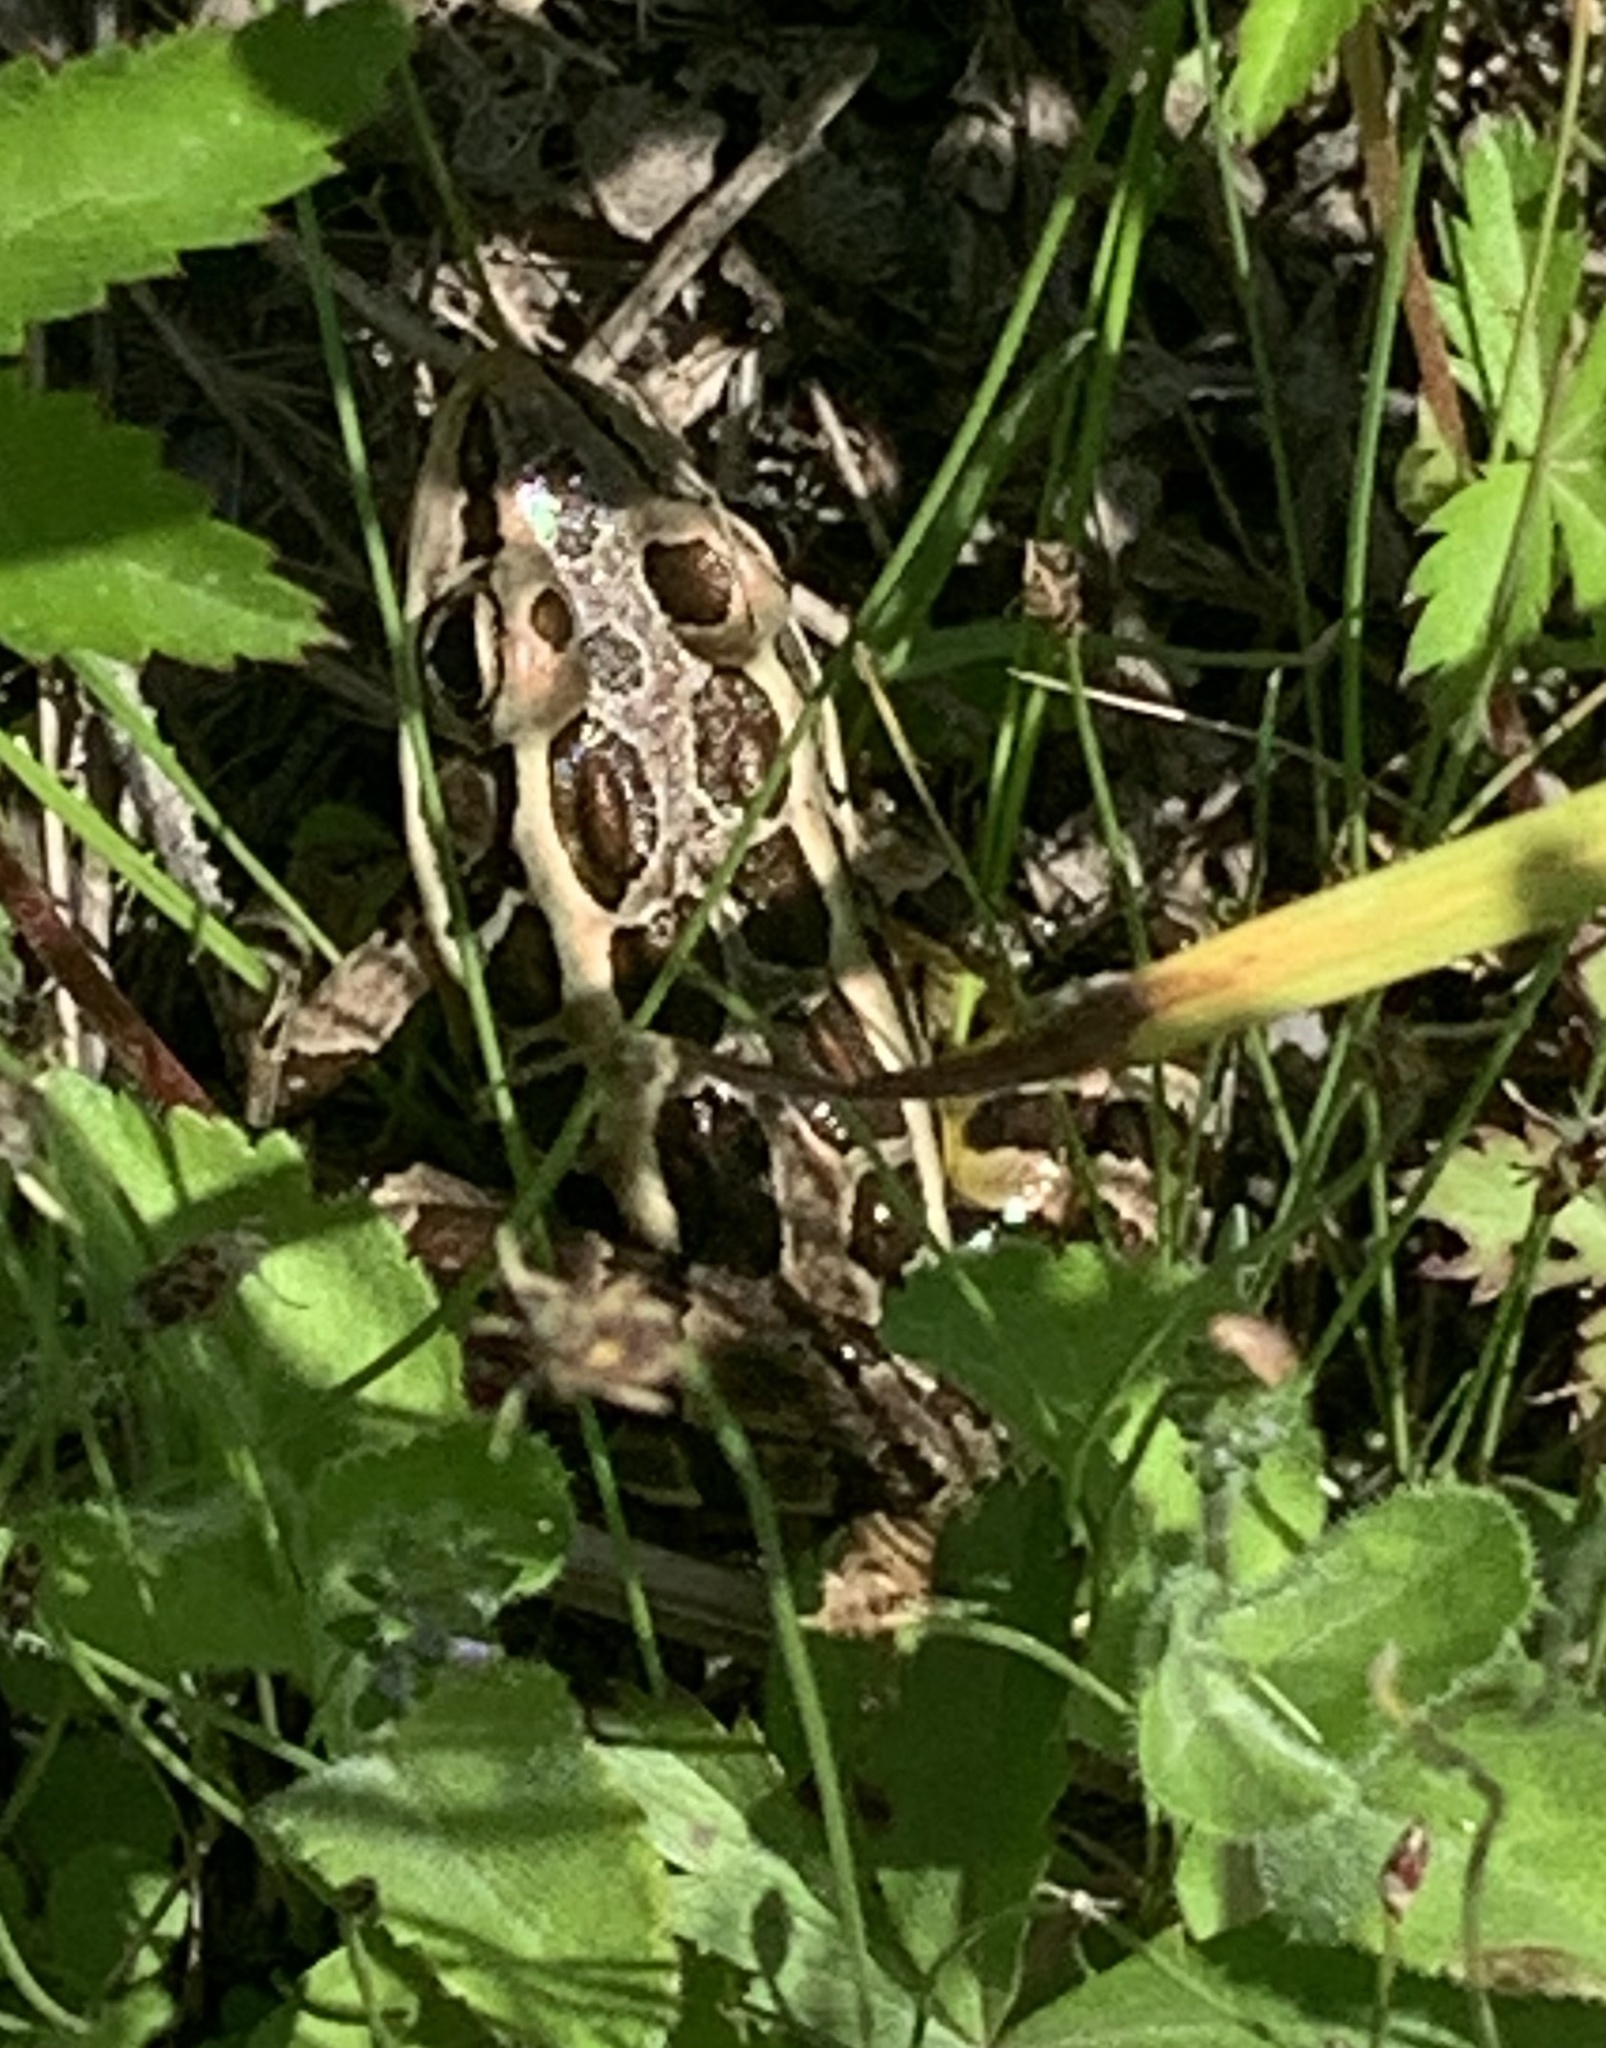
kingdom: Animalia
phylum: Chordata
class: Amphibia
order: Anura
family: Ranidae
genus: Lithobates
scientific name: Lithobates palustris
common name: Pickerel frog
